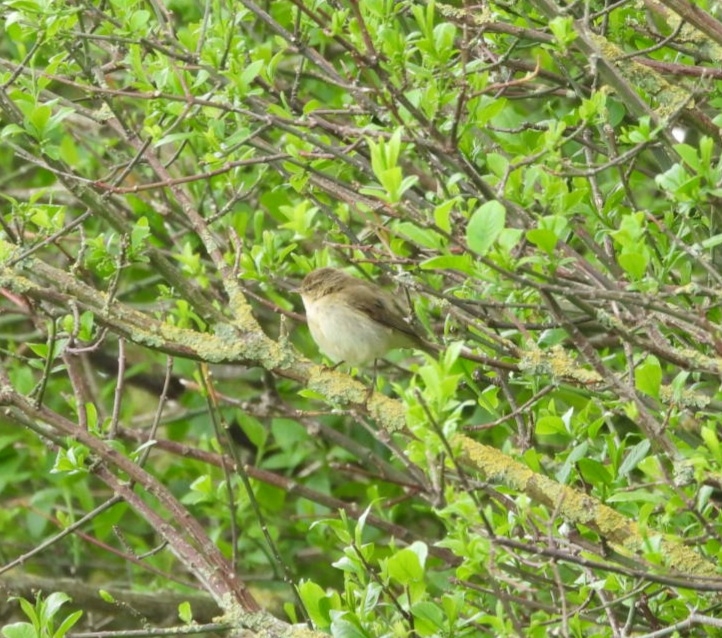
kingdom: Animalia
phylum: Chordata
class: Aves
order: Passeriformes
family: Phylloscopidae
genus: Phylloscopus
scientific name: Phylloscopus collybita
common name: Common chiffchaff
